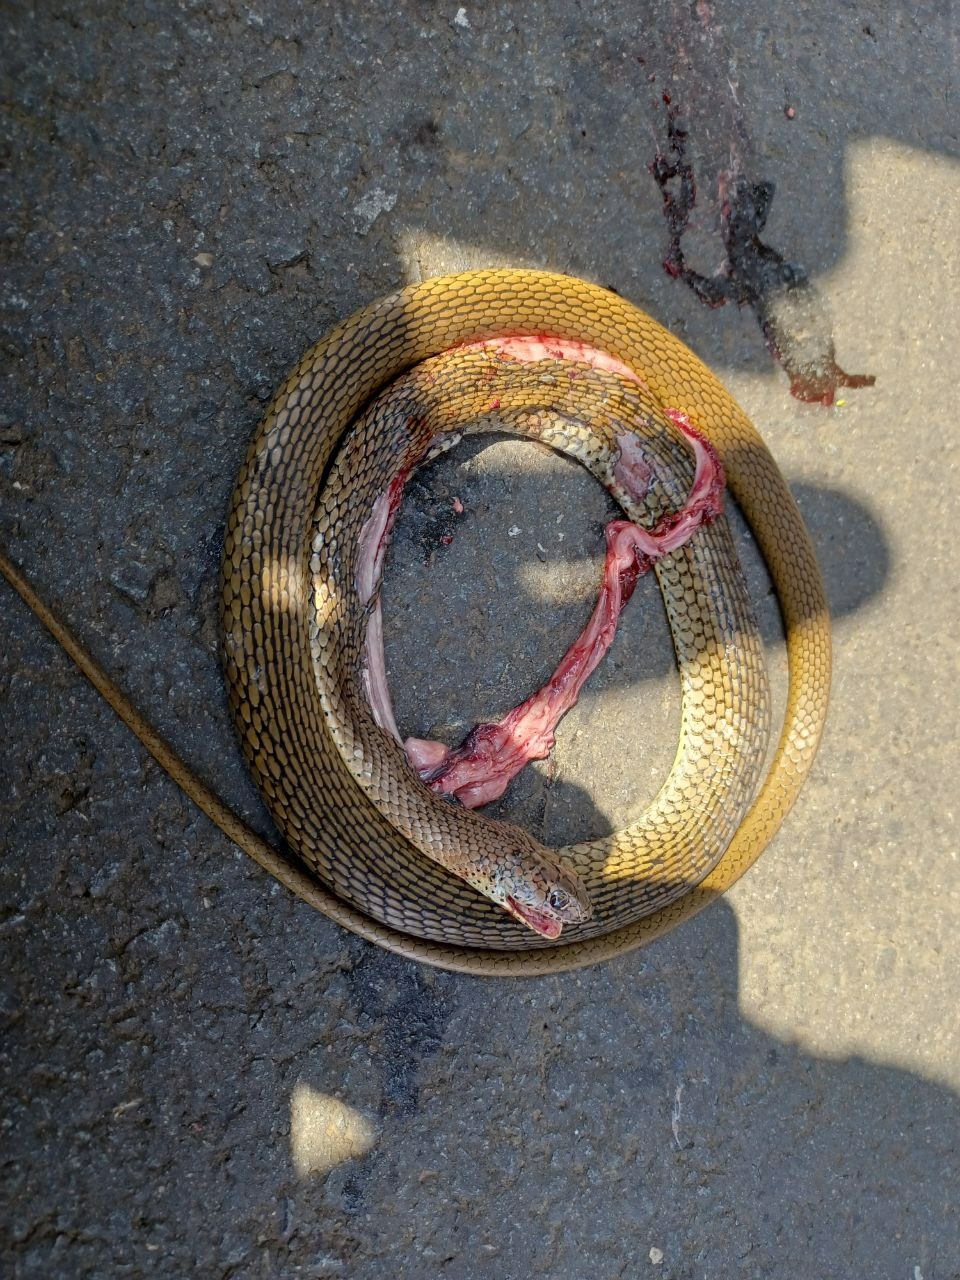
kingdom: Animalia
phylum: Chordata
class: Squamata
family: Psammophiidae
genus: Psammophis
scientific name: Psammophis mossambicus
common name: Olive grass snake
